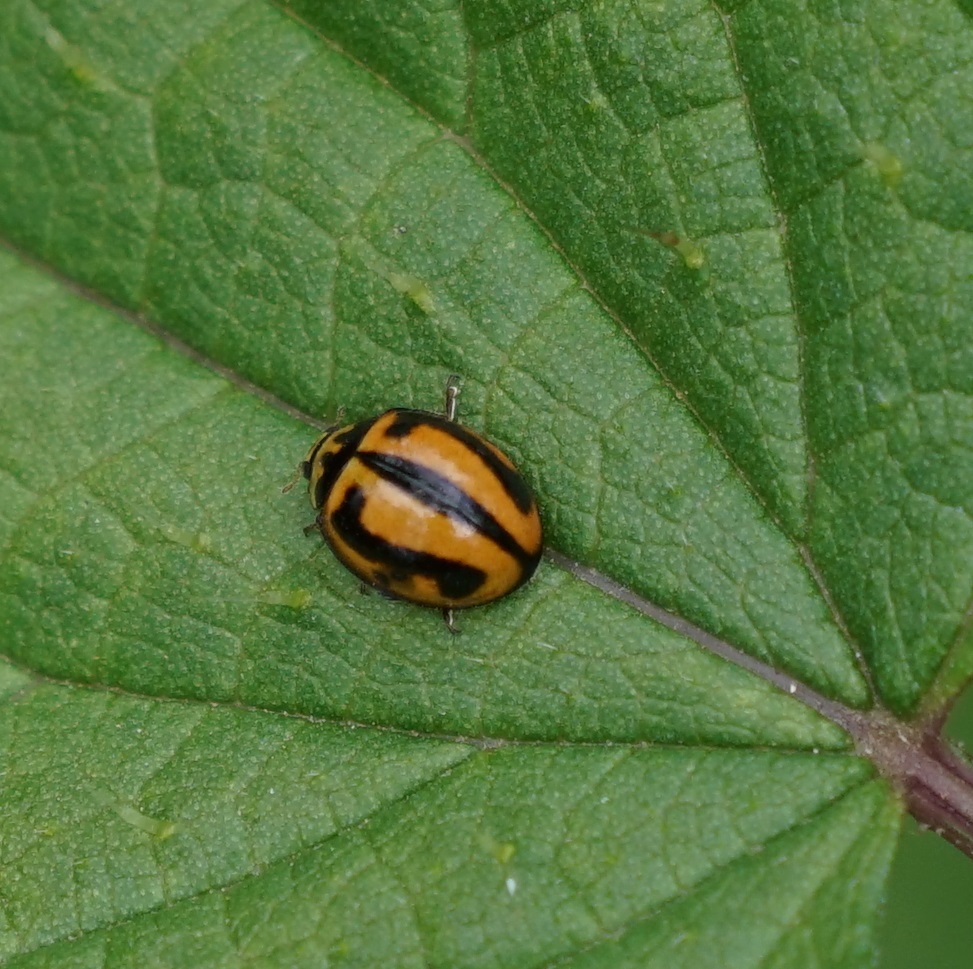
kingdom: Animalia
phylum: Arthropoda
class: Insecta
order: Coleoptera
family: Coccinellidae
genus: Micraspis
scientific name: Micraspis frenata
